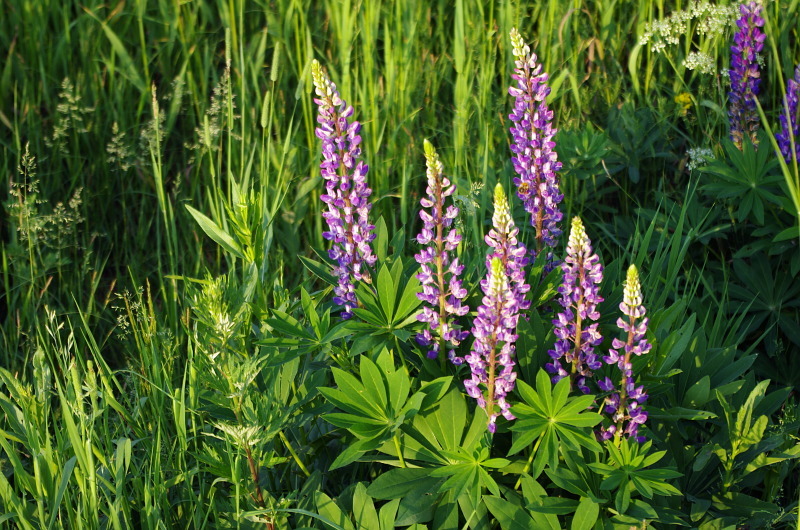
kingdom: Plantae
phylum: Tracheophyta
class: Magnoliopsida
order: Fabales
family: Fabaceae
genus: Lupinus
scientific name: Lupinus polyphyllus
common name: Garden lupin
